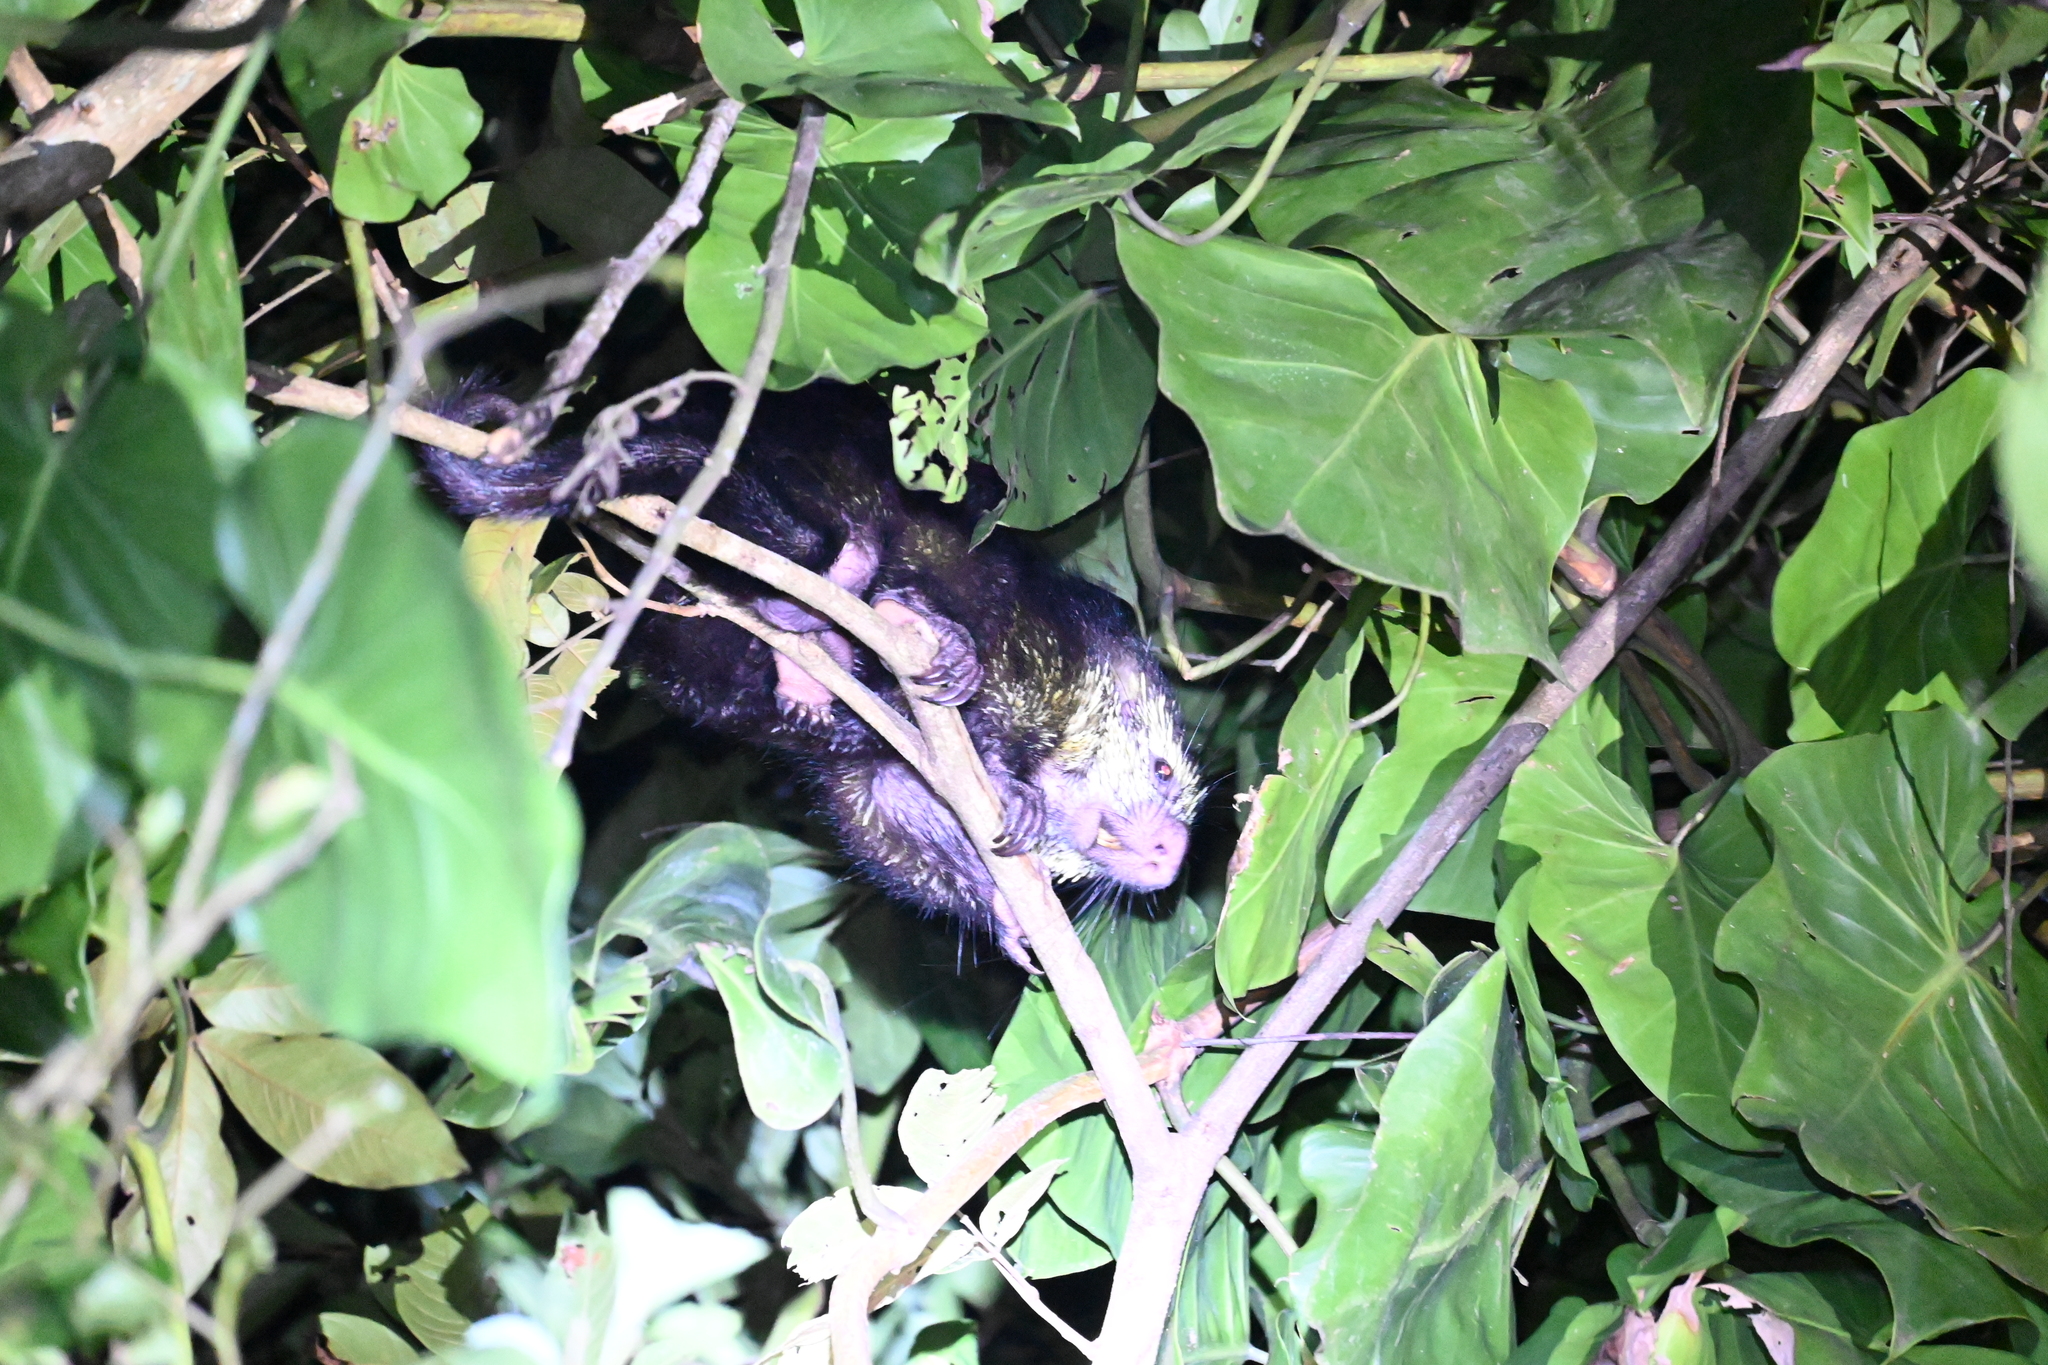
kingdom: Animalia
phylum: Chordata
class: Mammalia
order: Rodentia
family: Erethizontidae
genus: Sphiggurus
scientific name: Sphiggurus mexicanus
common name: Mexican hairy dwarf porcupine
